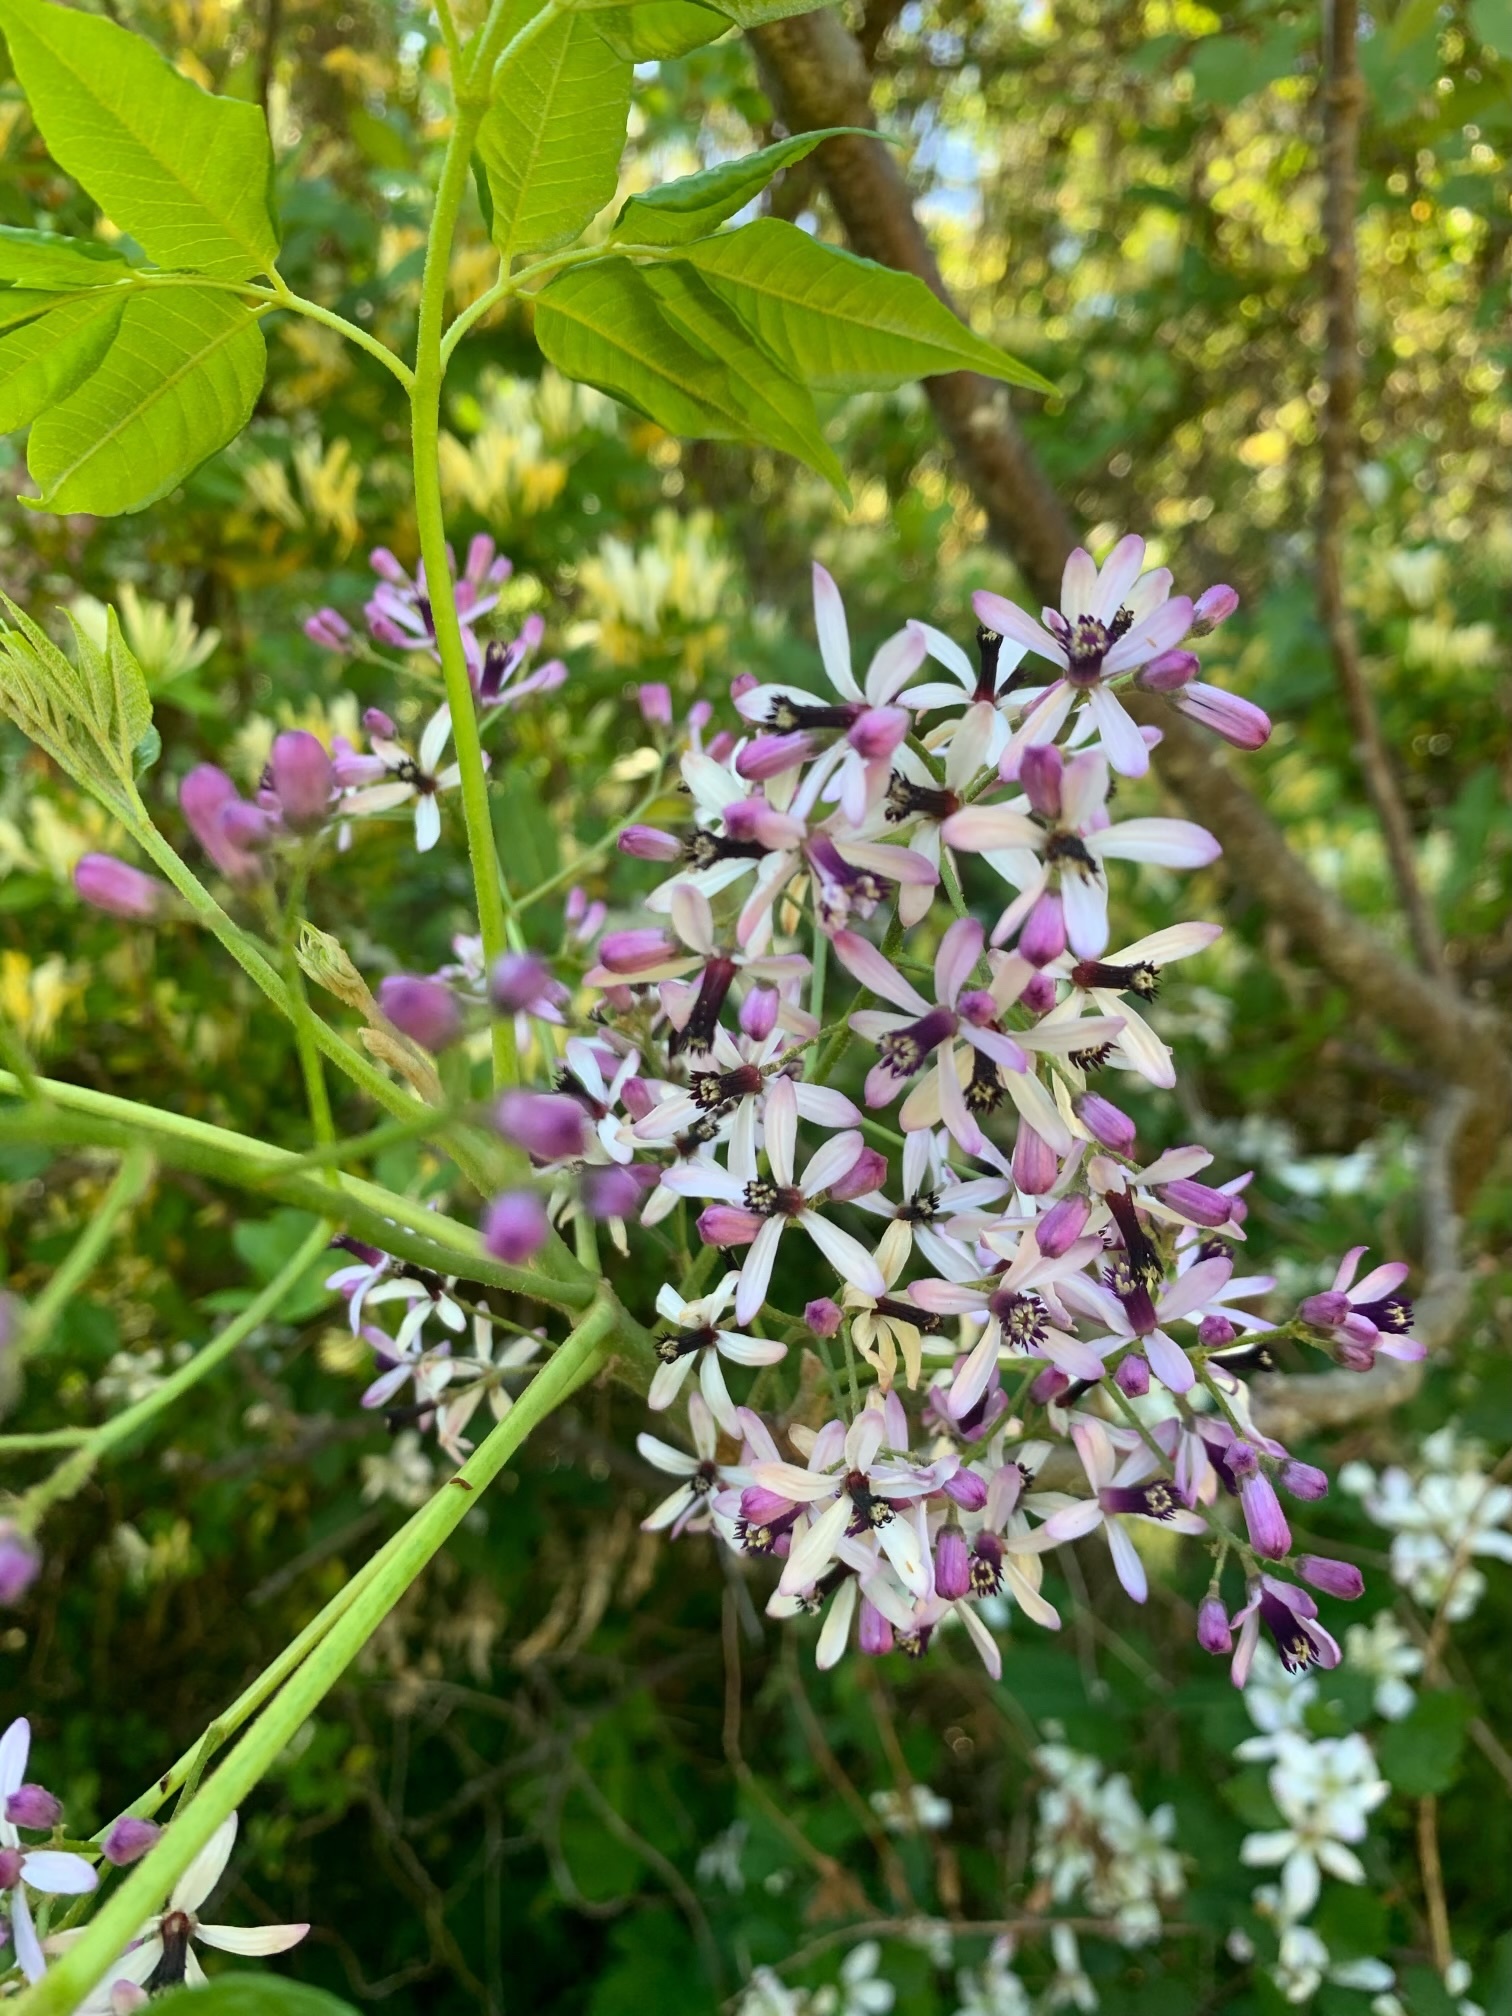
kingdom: Plantae
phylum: Tracheophyta
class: Magnoliopsida
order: Sapindales
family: Meliaceae
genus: Melia
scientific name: Melia azedarach
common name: Chinaberrytree
